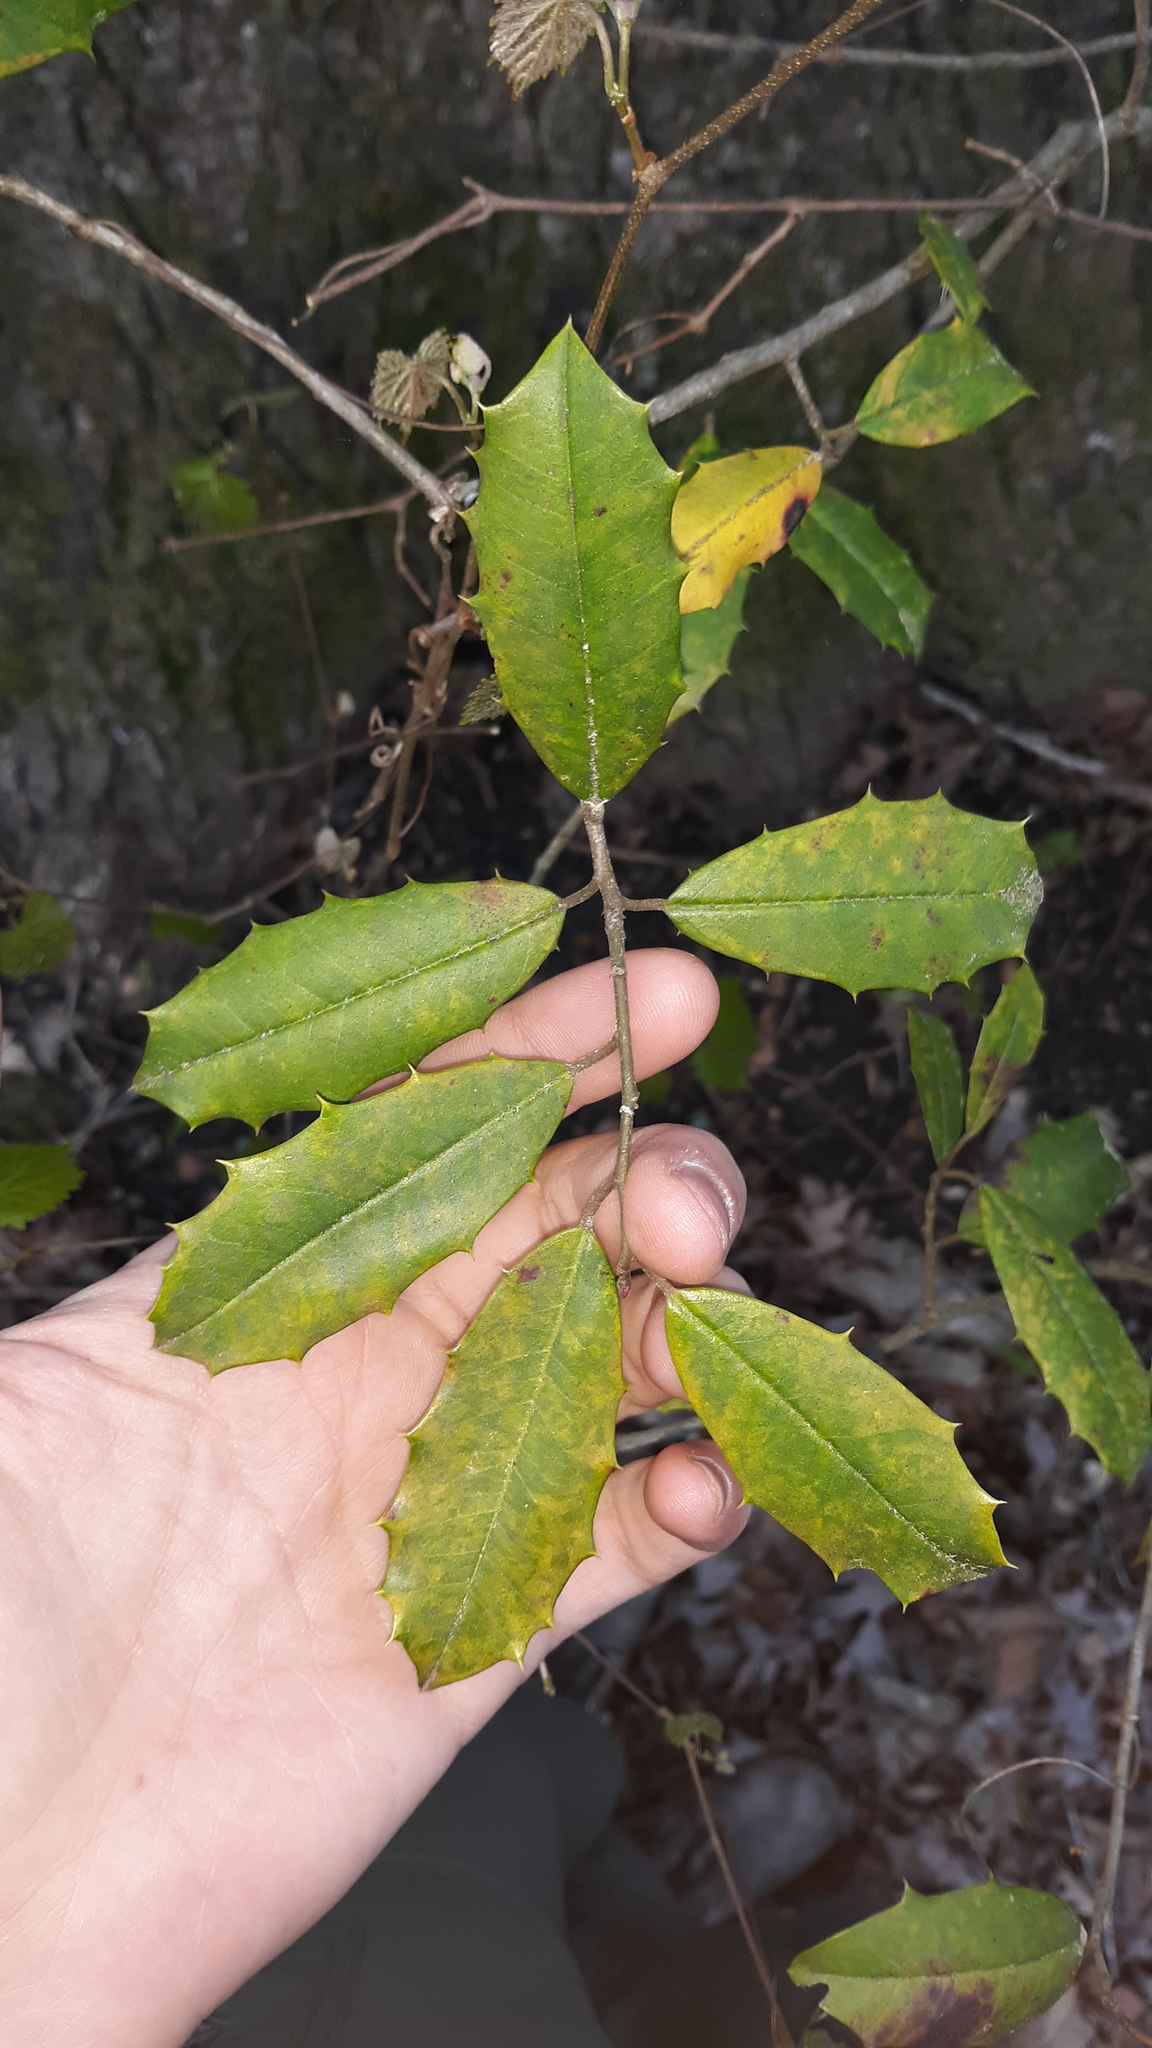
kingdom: Plantae
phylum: Tracheophyta
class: Magnoliopsida
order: Aquifoliales
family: Aquifoliaceae
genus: Ilex
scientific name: Ilex opaca
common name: American holly
